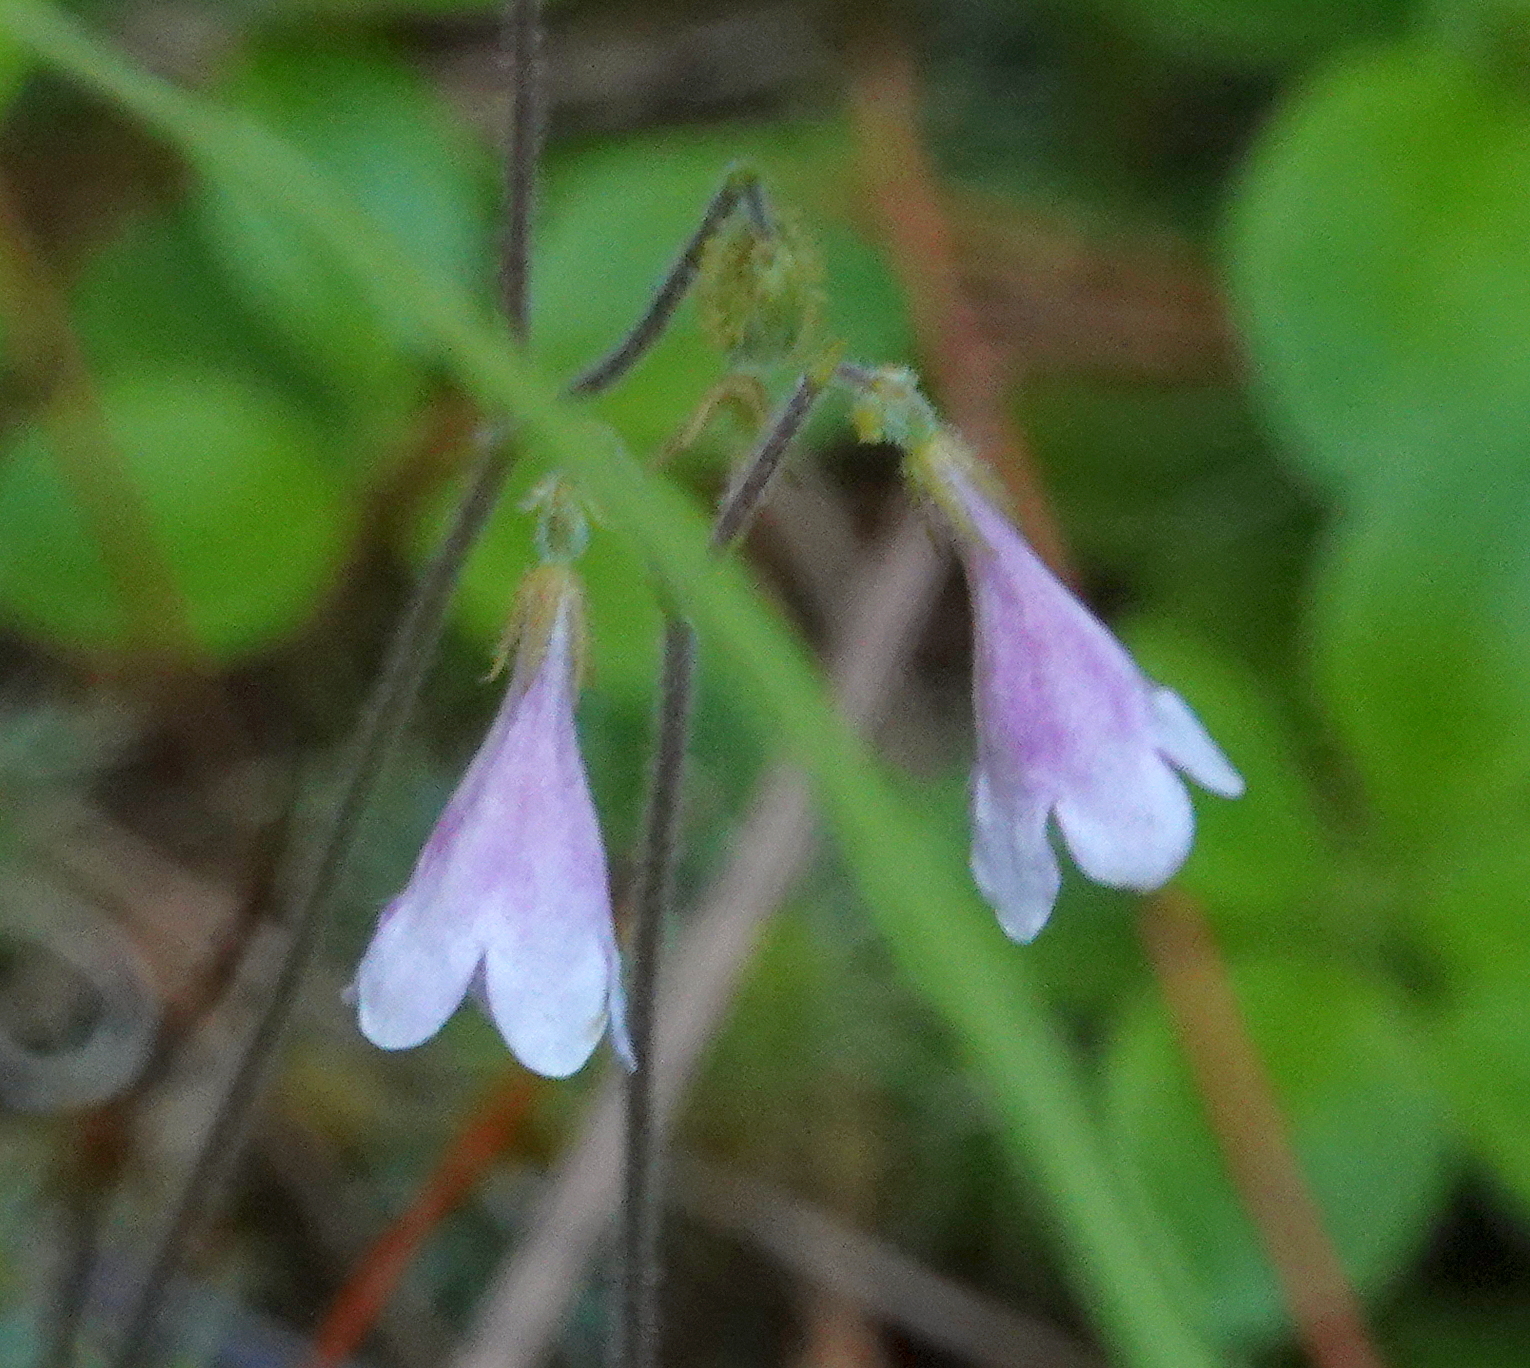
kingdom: Plantae
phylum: Tracheophyta
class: Magnoliopsida
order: Dipsacales
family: Caprifoliaceae
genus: Linnaea
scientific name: Linnaea borealis
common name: Twinflower
